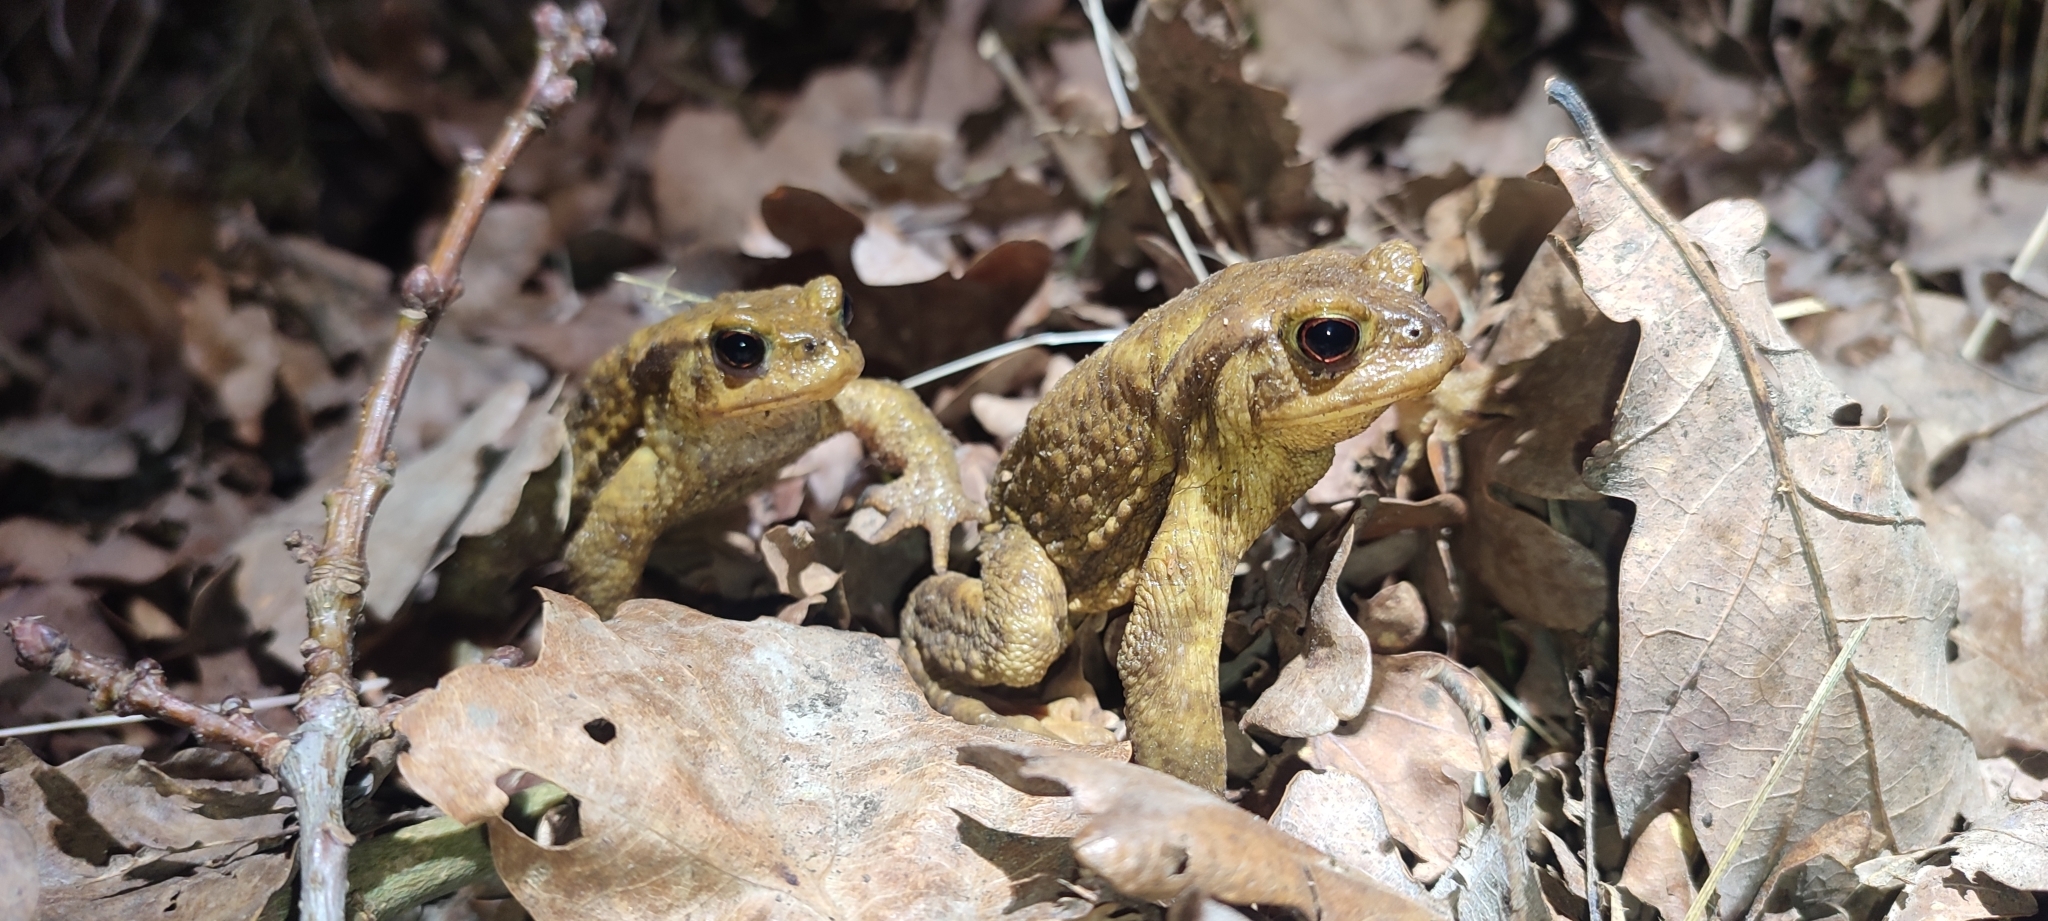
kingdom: Animalia
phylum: Chordata
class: Amphibia
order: Anura
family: Bufonidae
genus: Bufo
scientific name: Bufo spinosus
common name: Western common toad
